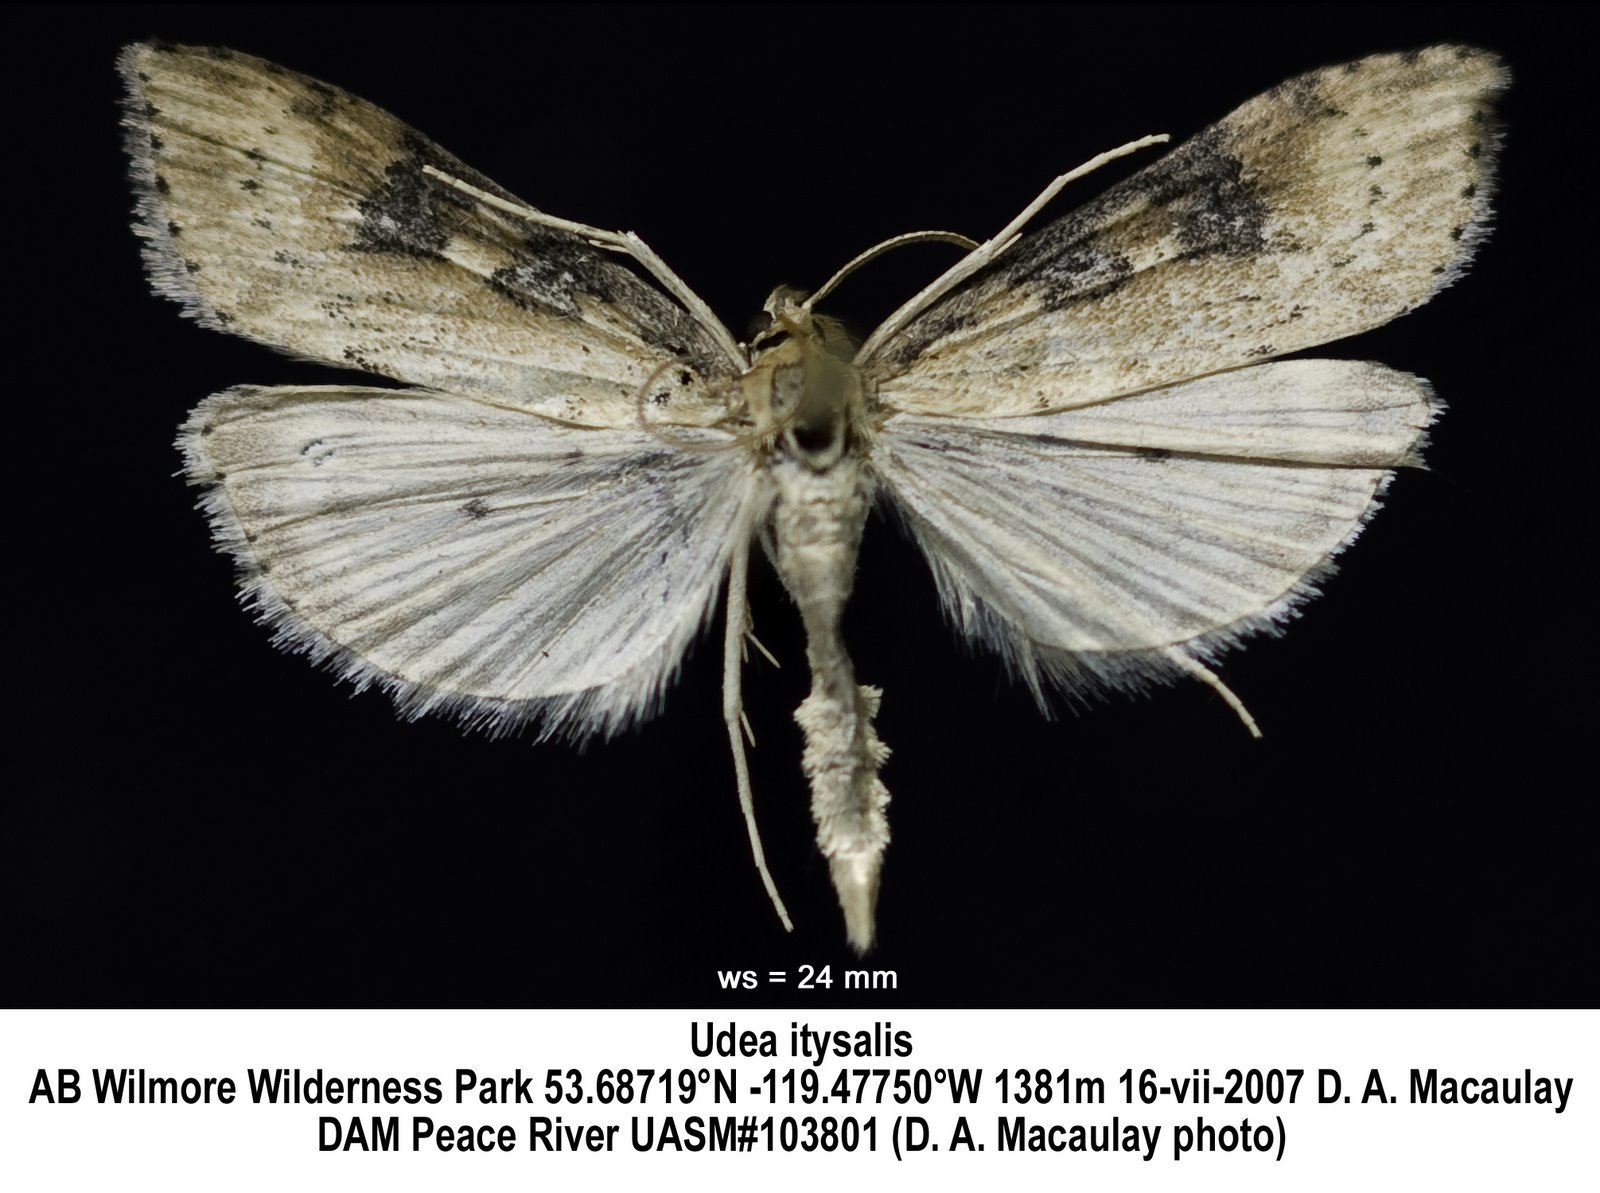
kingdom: Animalia
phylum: Arthropoda
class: Insecta
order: Lepidoptera
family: Crambidae
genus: Udea
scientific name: Udea itysalis
